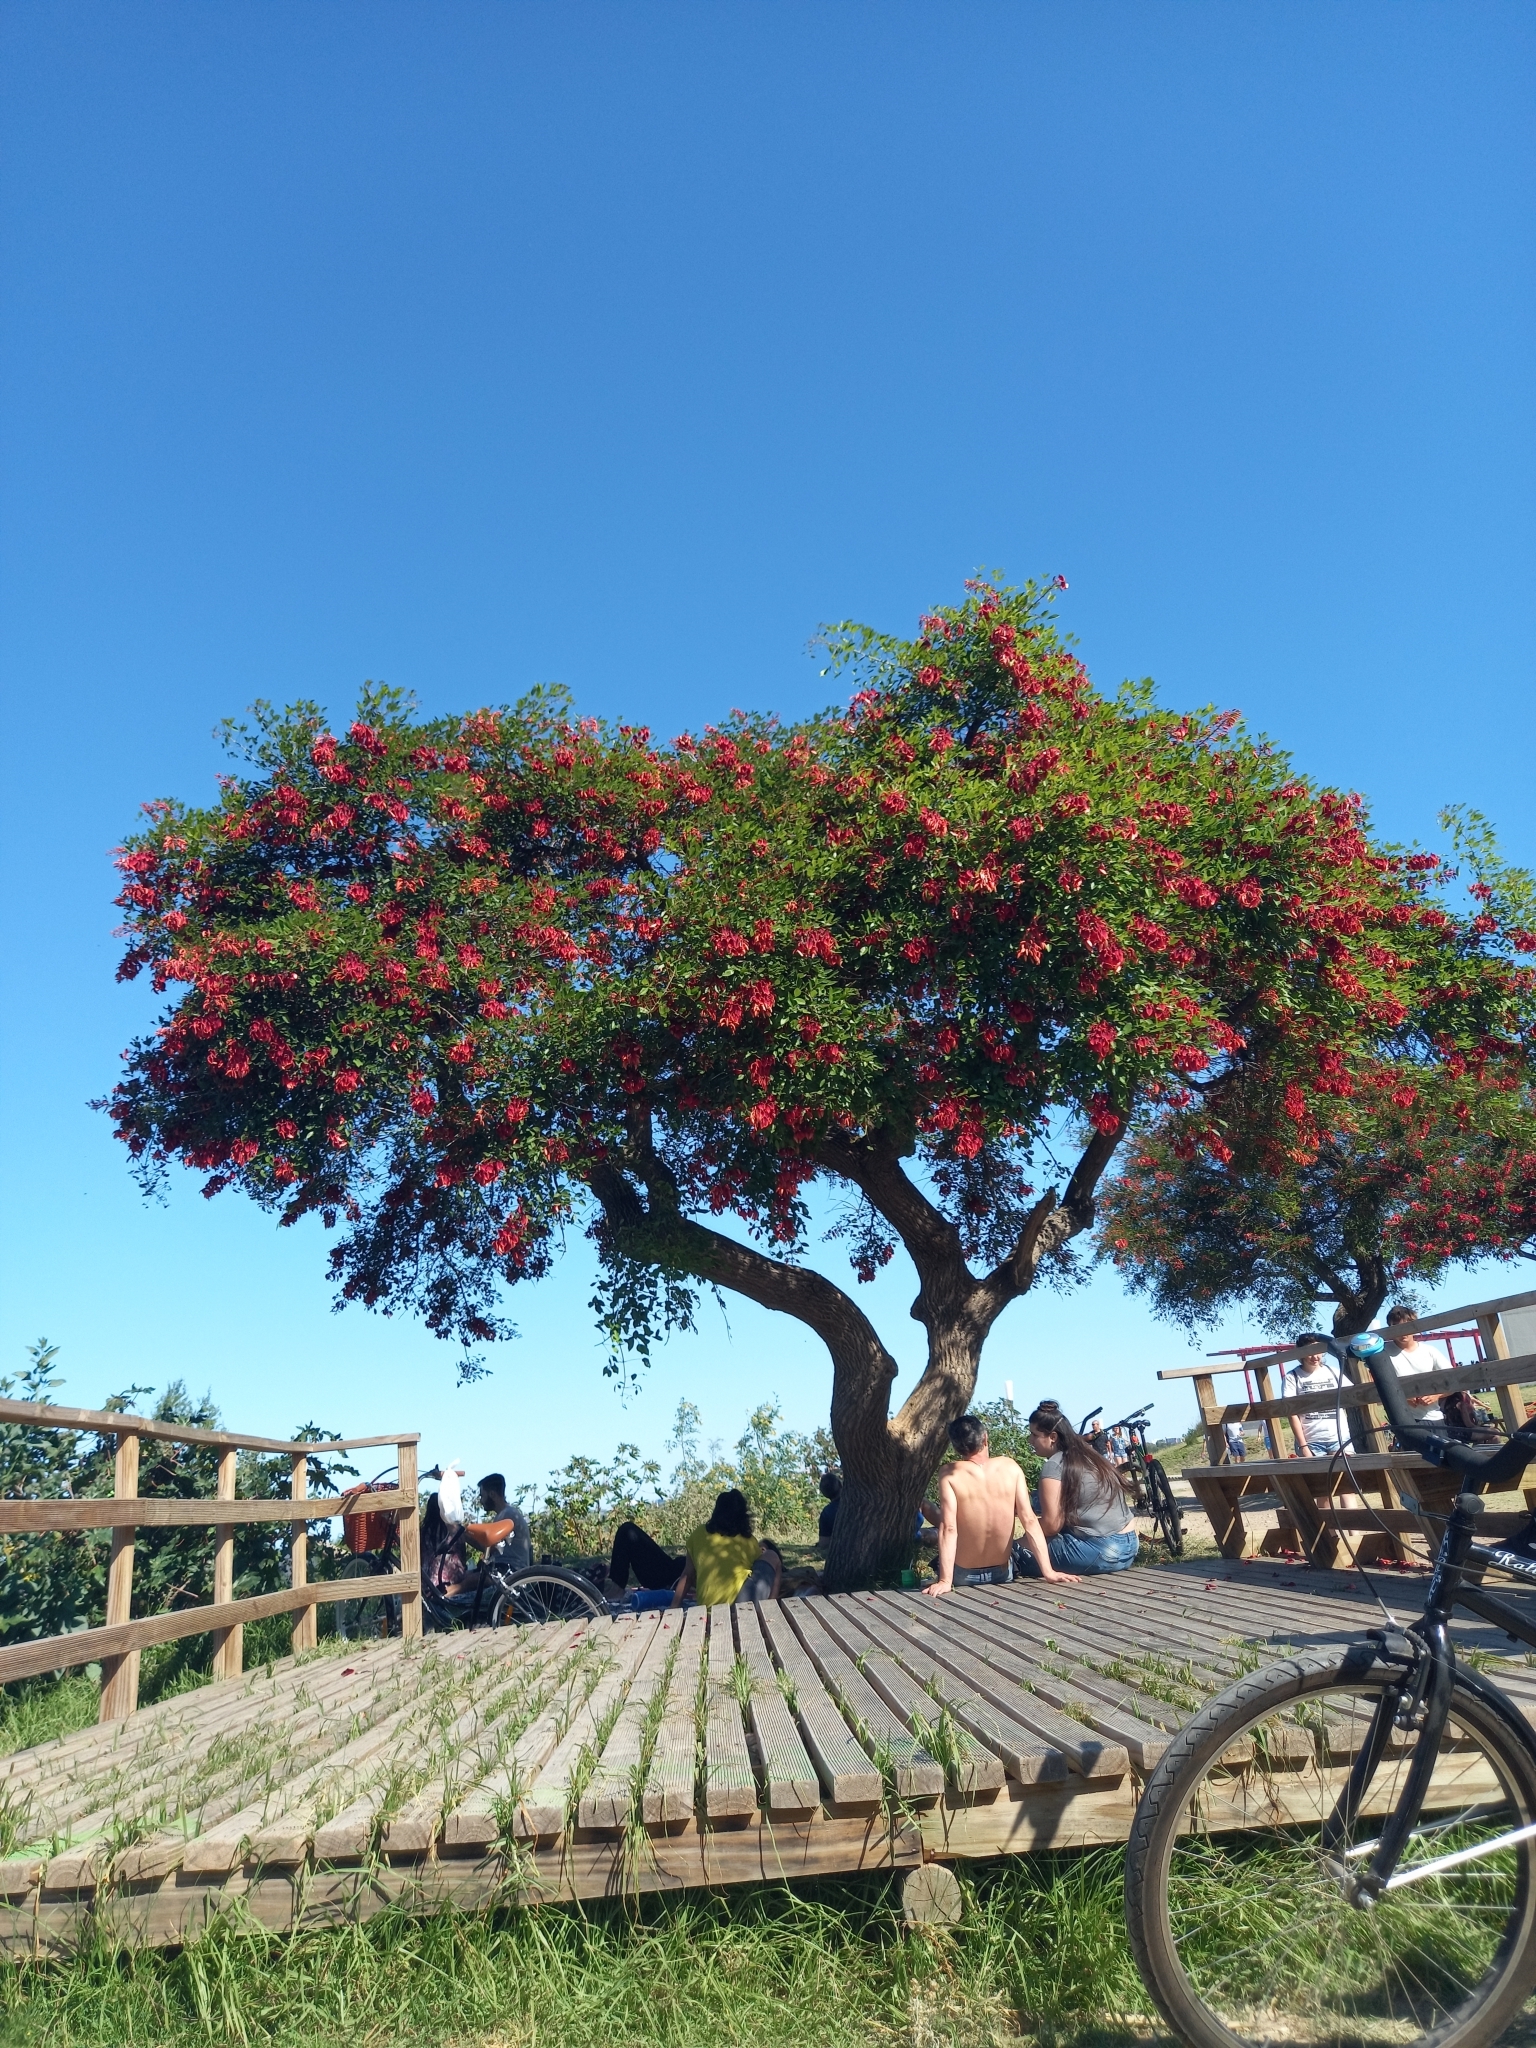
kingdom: Plantae
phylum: Tracheophyta
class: Magnoliopsida
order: Fabales
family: Fabaceae
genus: Erythrina
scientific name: Erythrina crista-galli
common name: Cockspur coral tree
